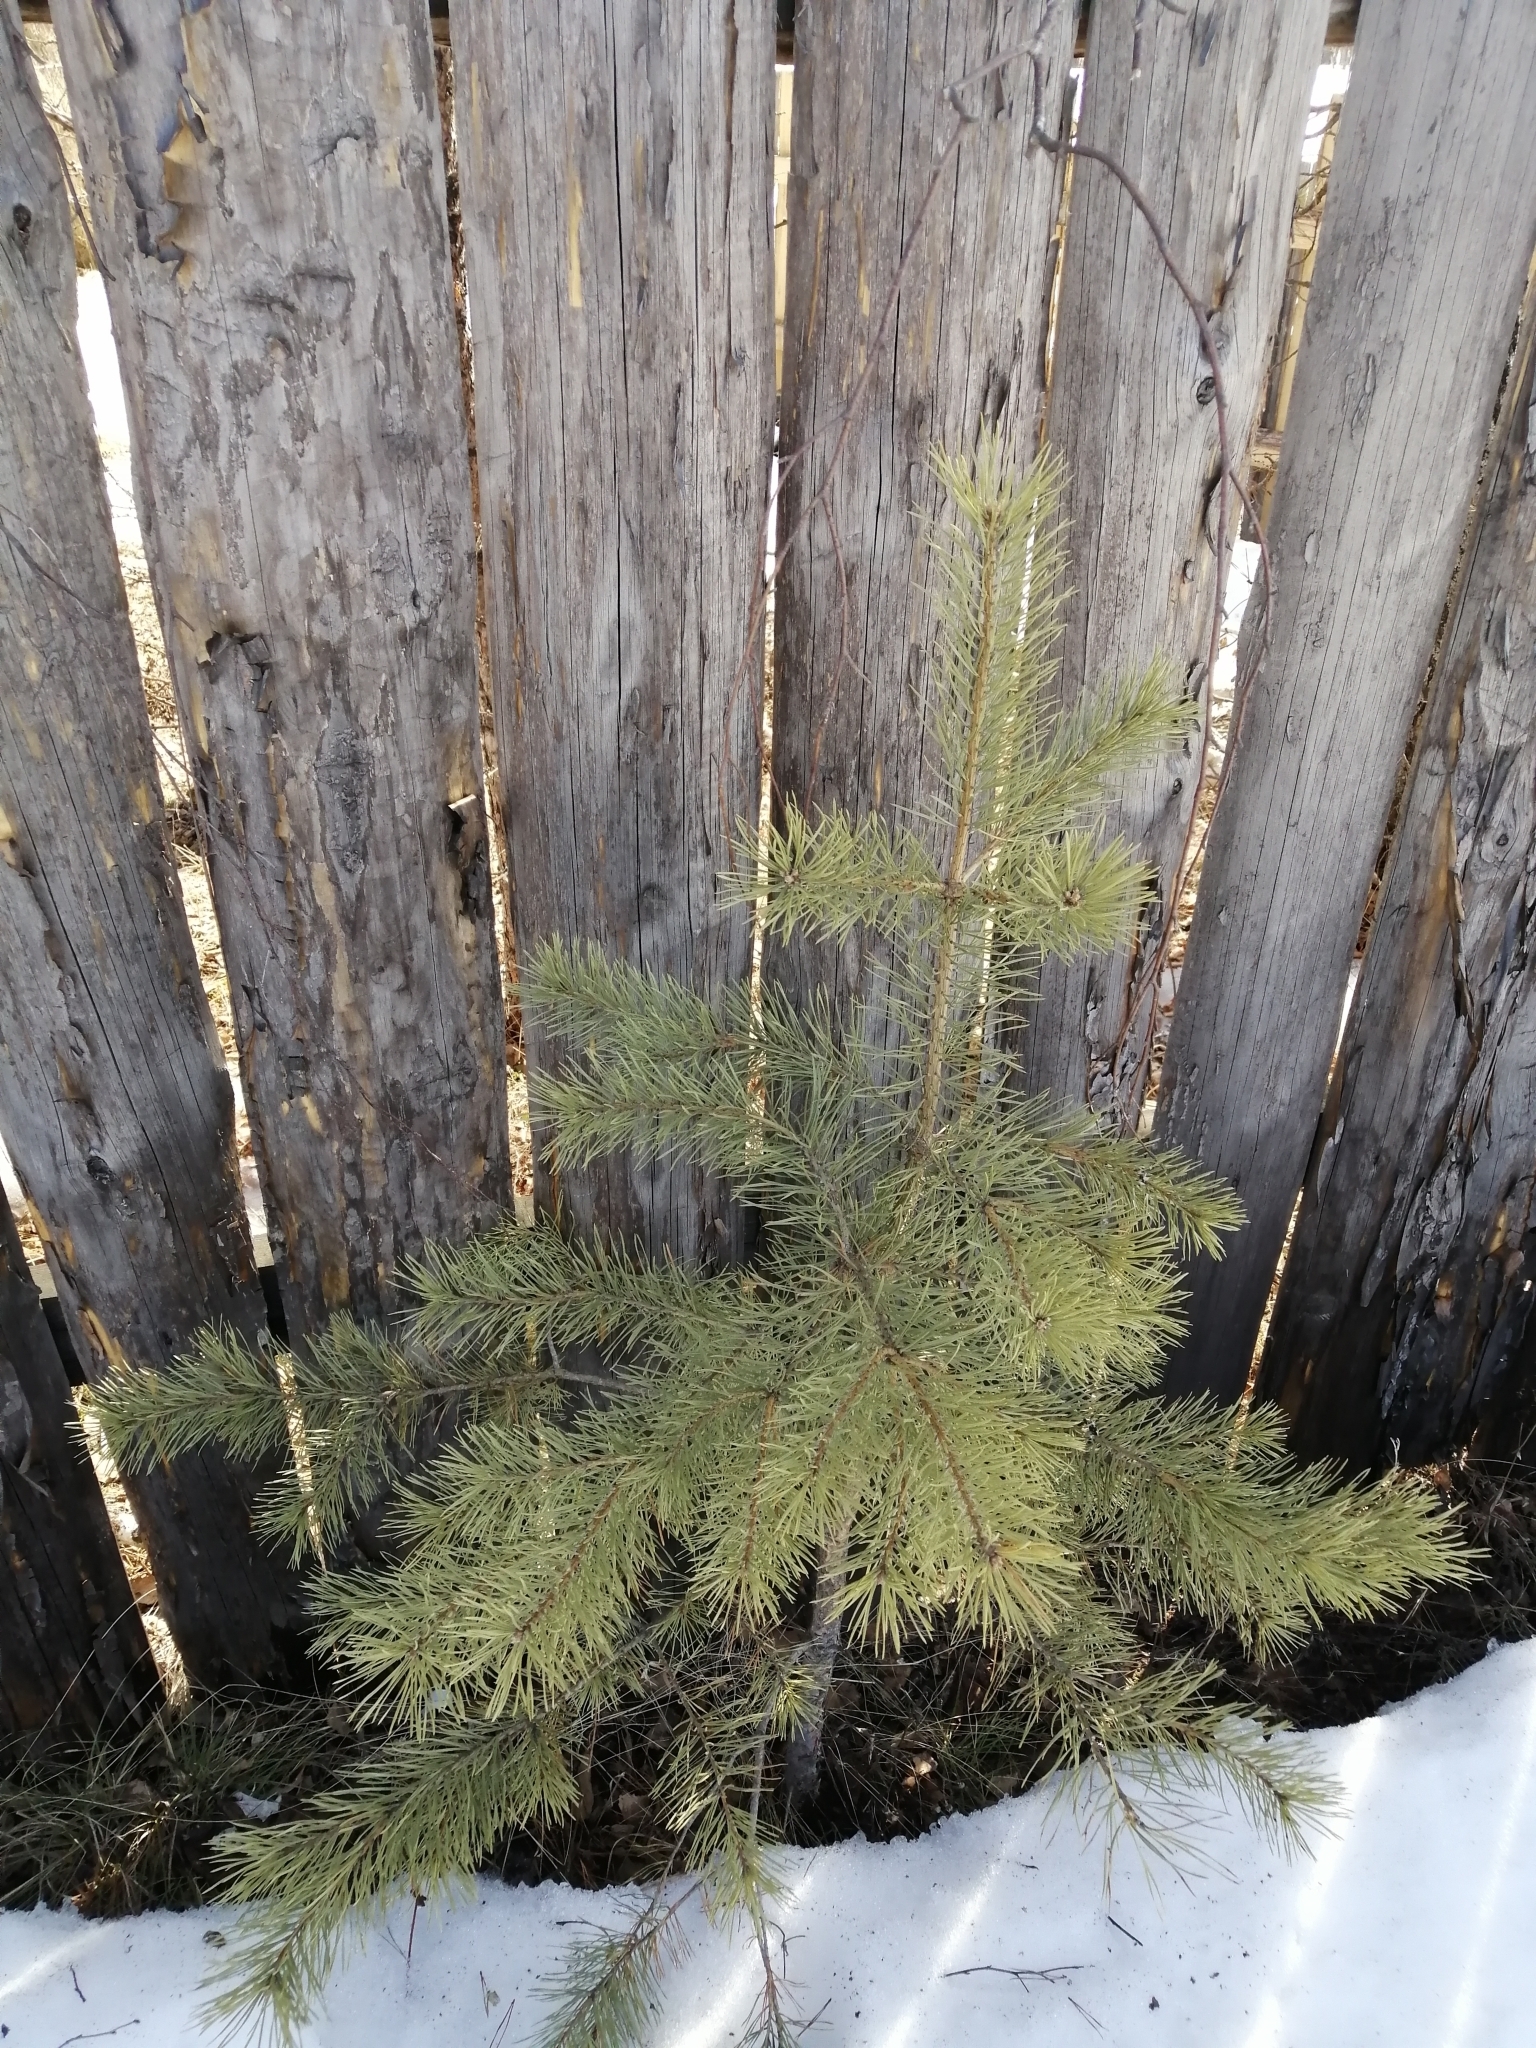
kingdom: Plantae
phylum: Tracheophyta
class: Pinopsida
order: Pinales
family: Pinaceae
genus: Pinus
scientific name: Pinus sylvestris
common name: Scots pine
